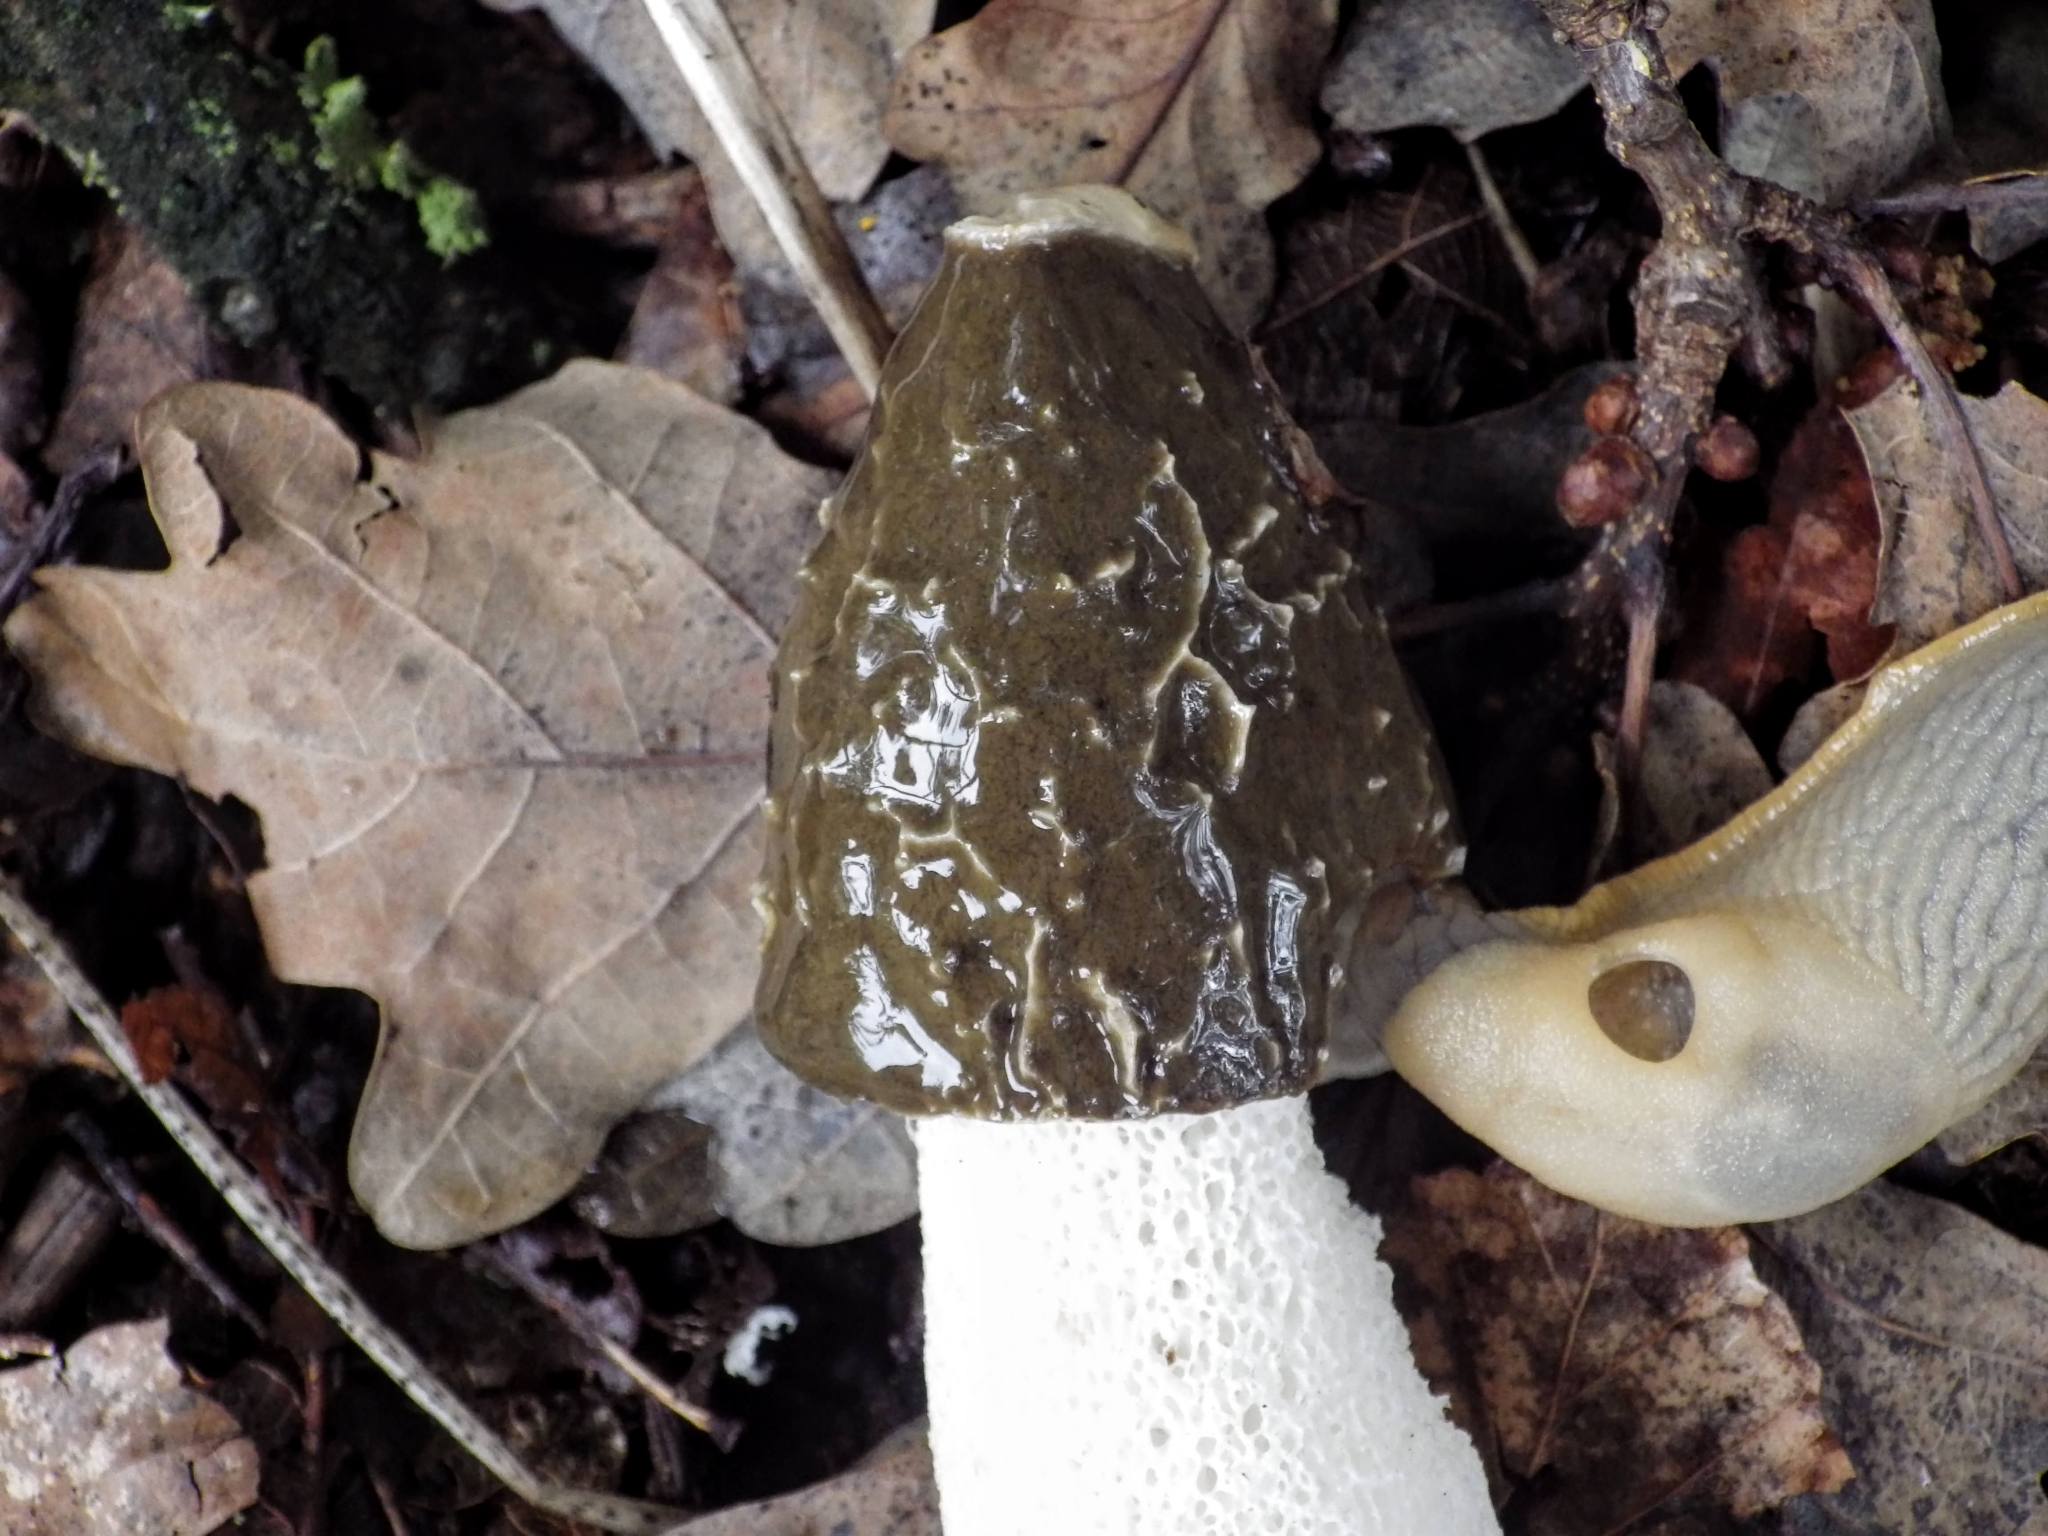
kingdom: Fungi
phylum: Basidiomycota
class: Agaricomycetes
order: Phallales
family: Phallaceae
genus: Phallus
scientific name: Phallus impudicus
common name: Common stinkhorn
